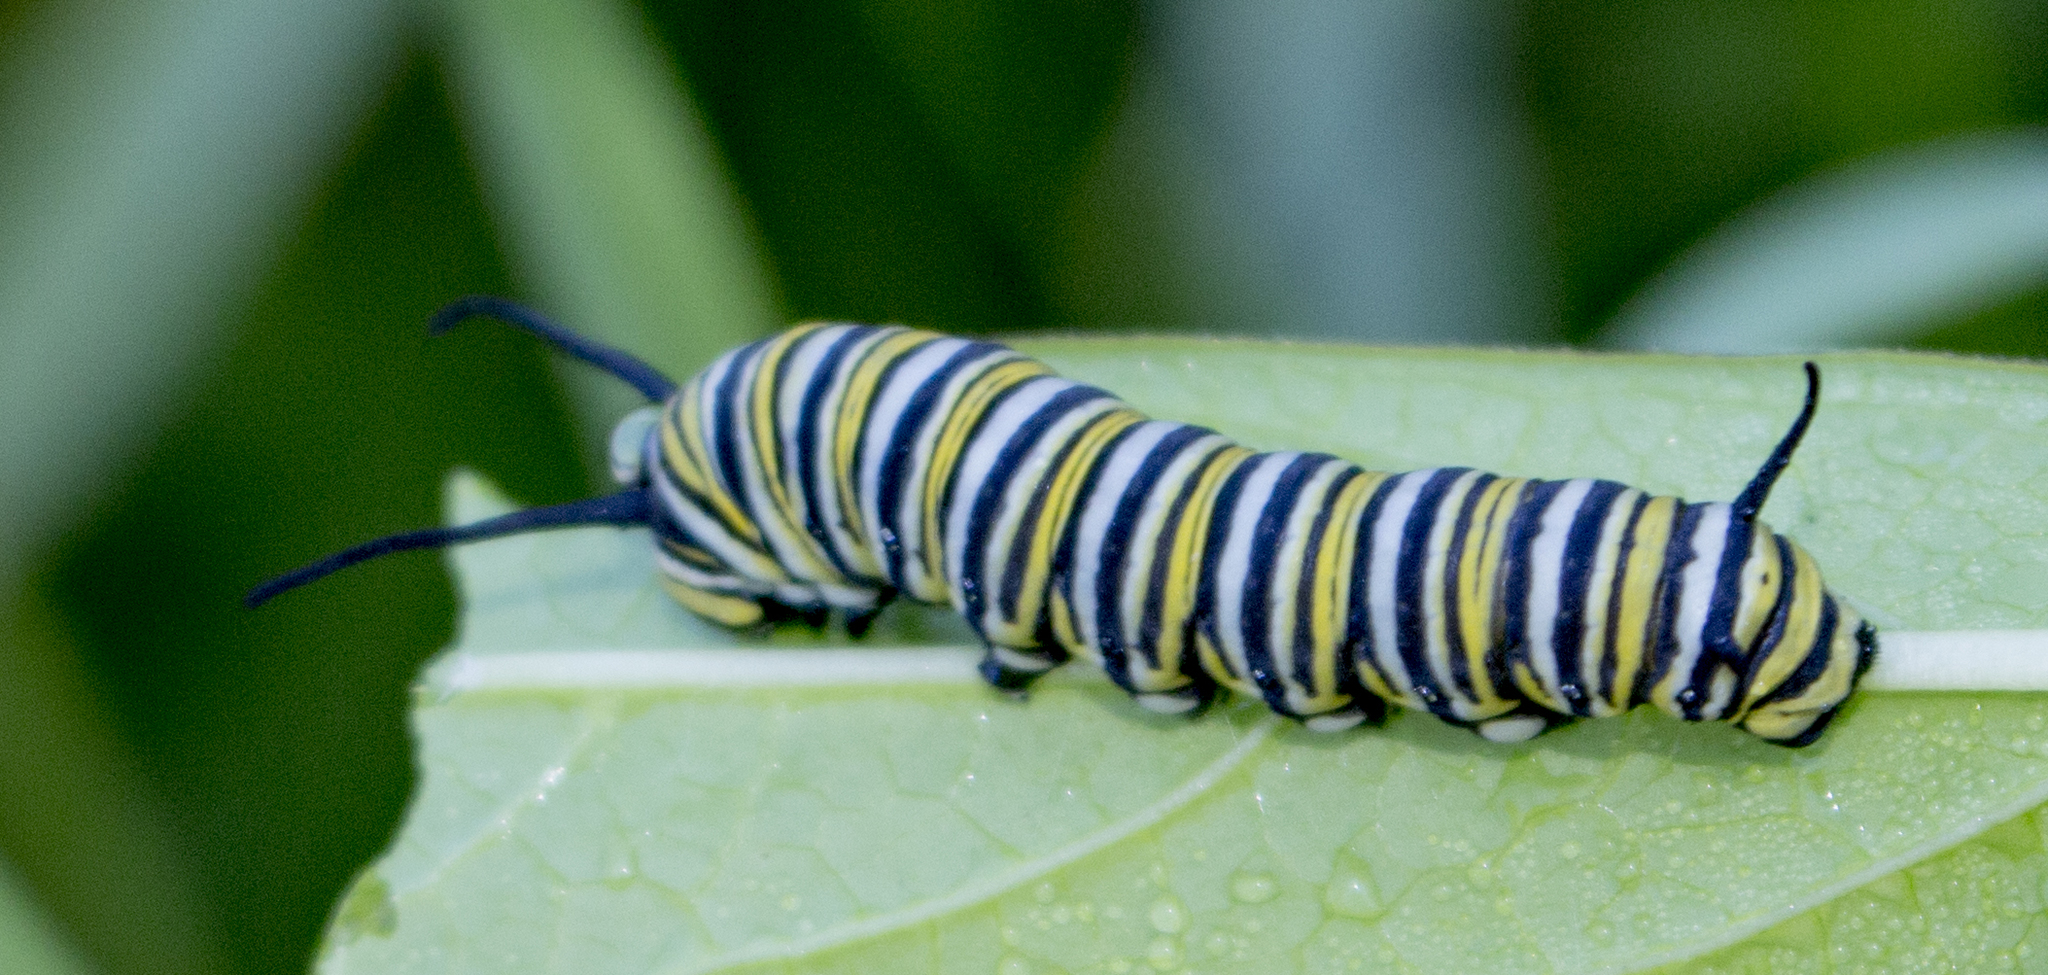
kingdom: Animalia
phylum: Arthropoda
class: Insecta
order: Lepidoptera
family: Nymphalidae
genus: Danaus
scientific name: Danaus plexippus
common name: Monarch
